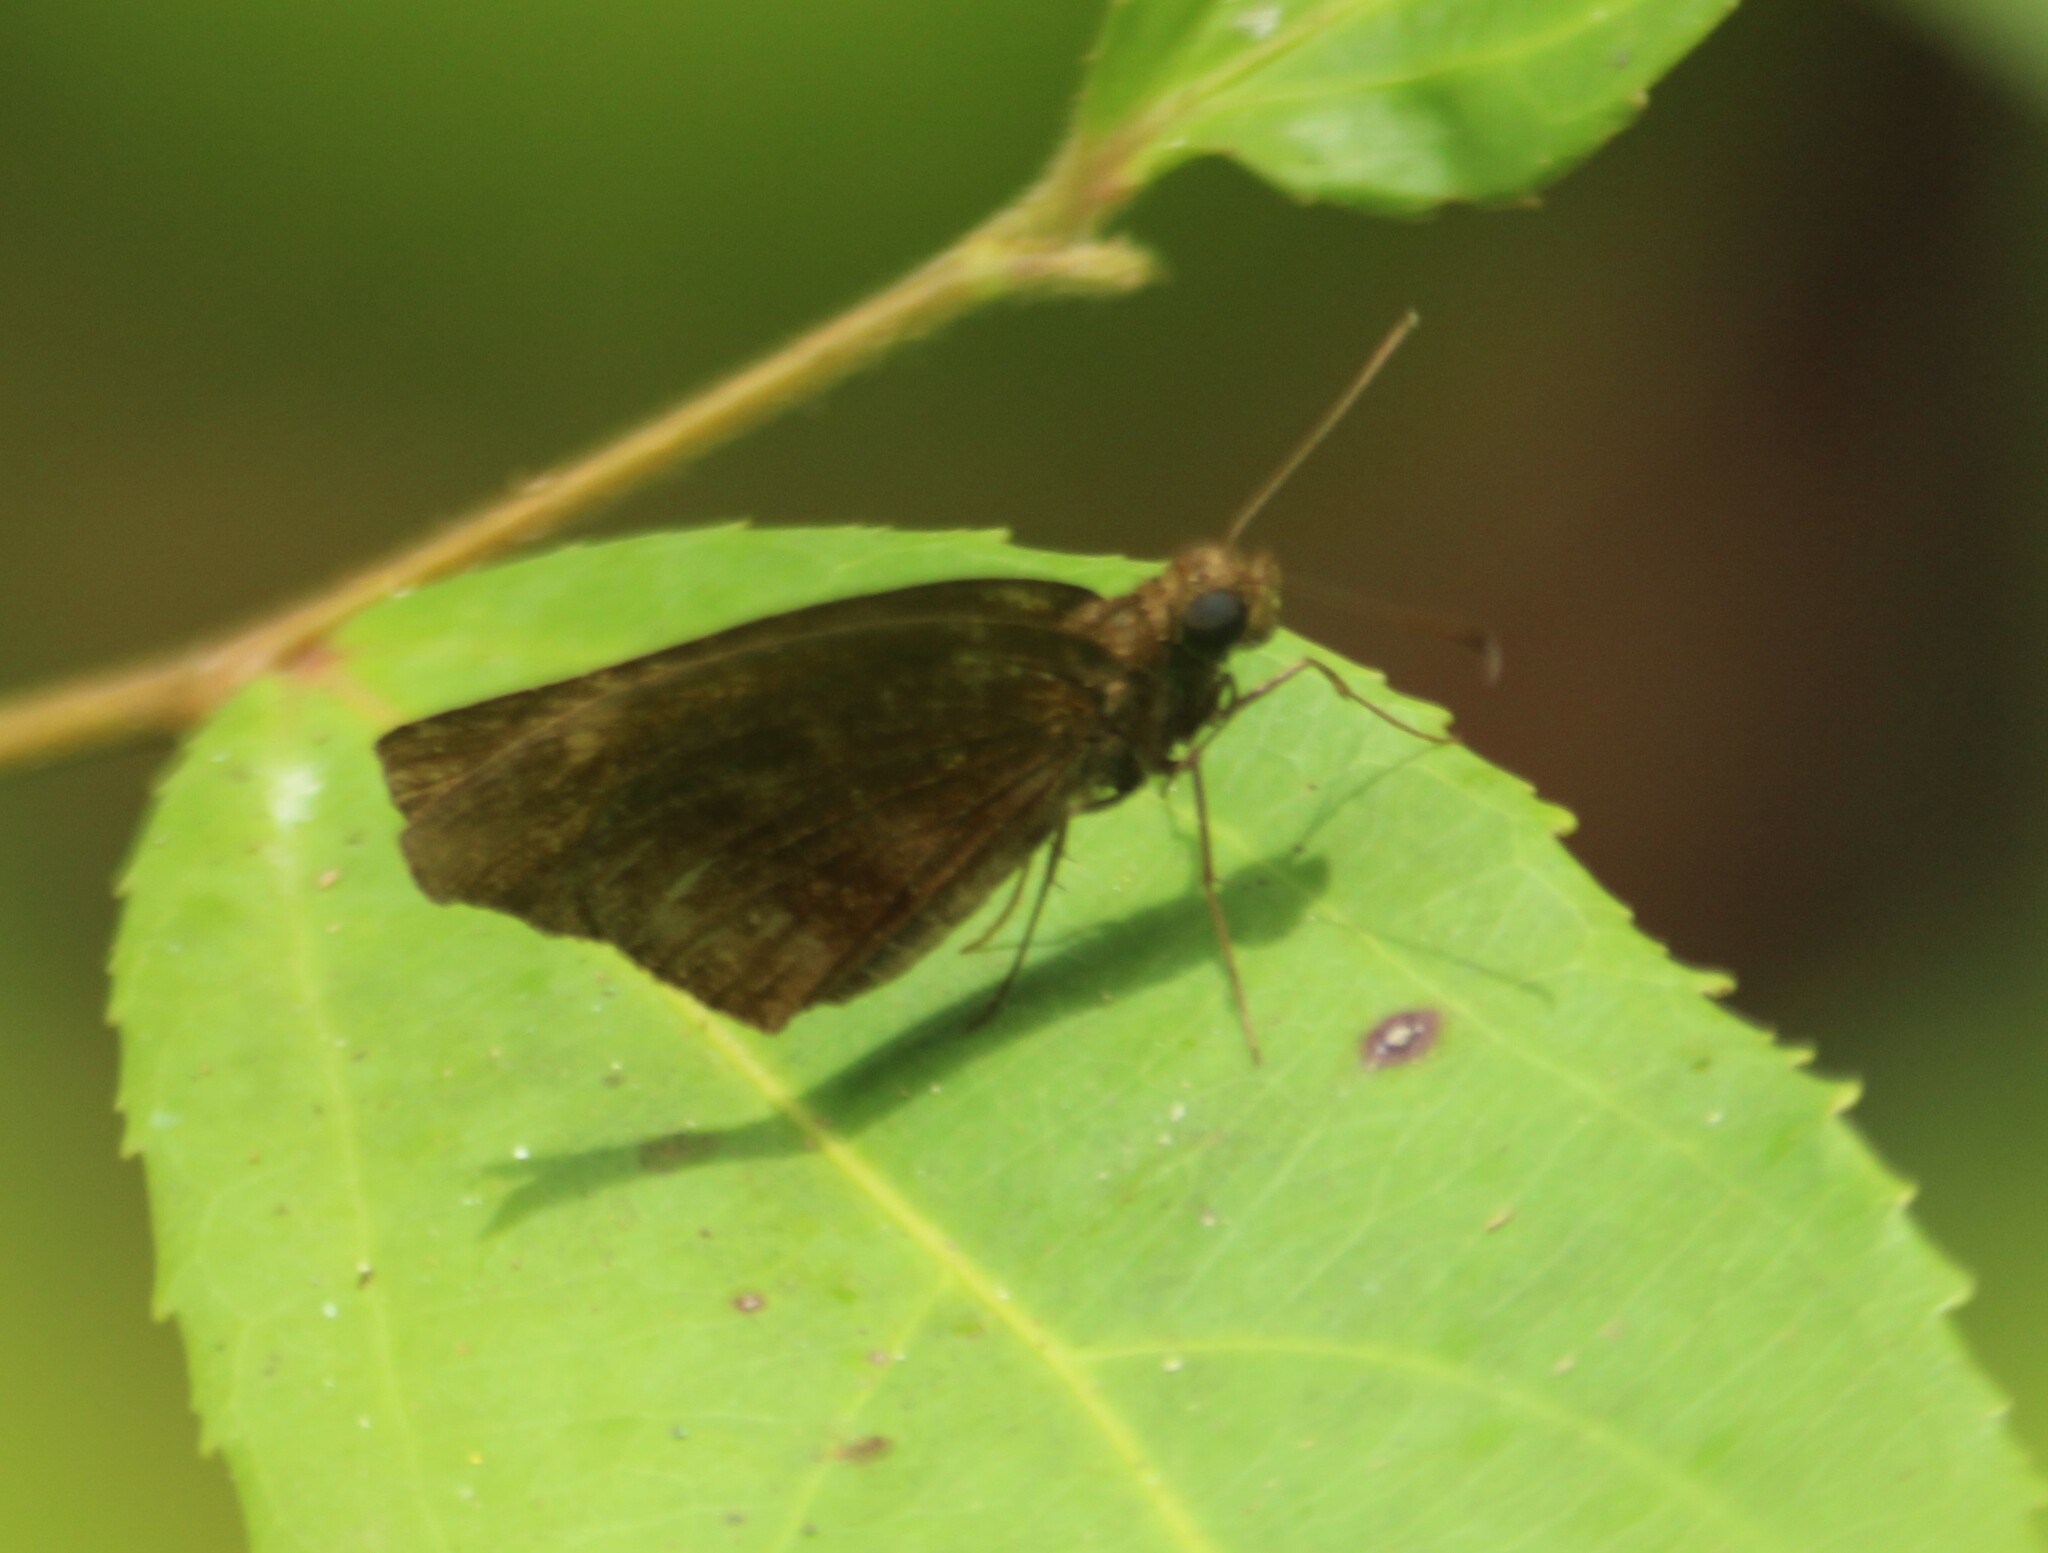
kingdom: Animalia
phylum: Arthropoda
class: Insecta
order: Lepidoptera
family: Hesperiidae
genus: Psolos
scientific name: Psolos fuligo
